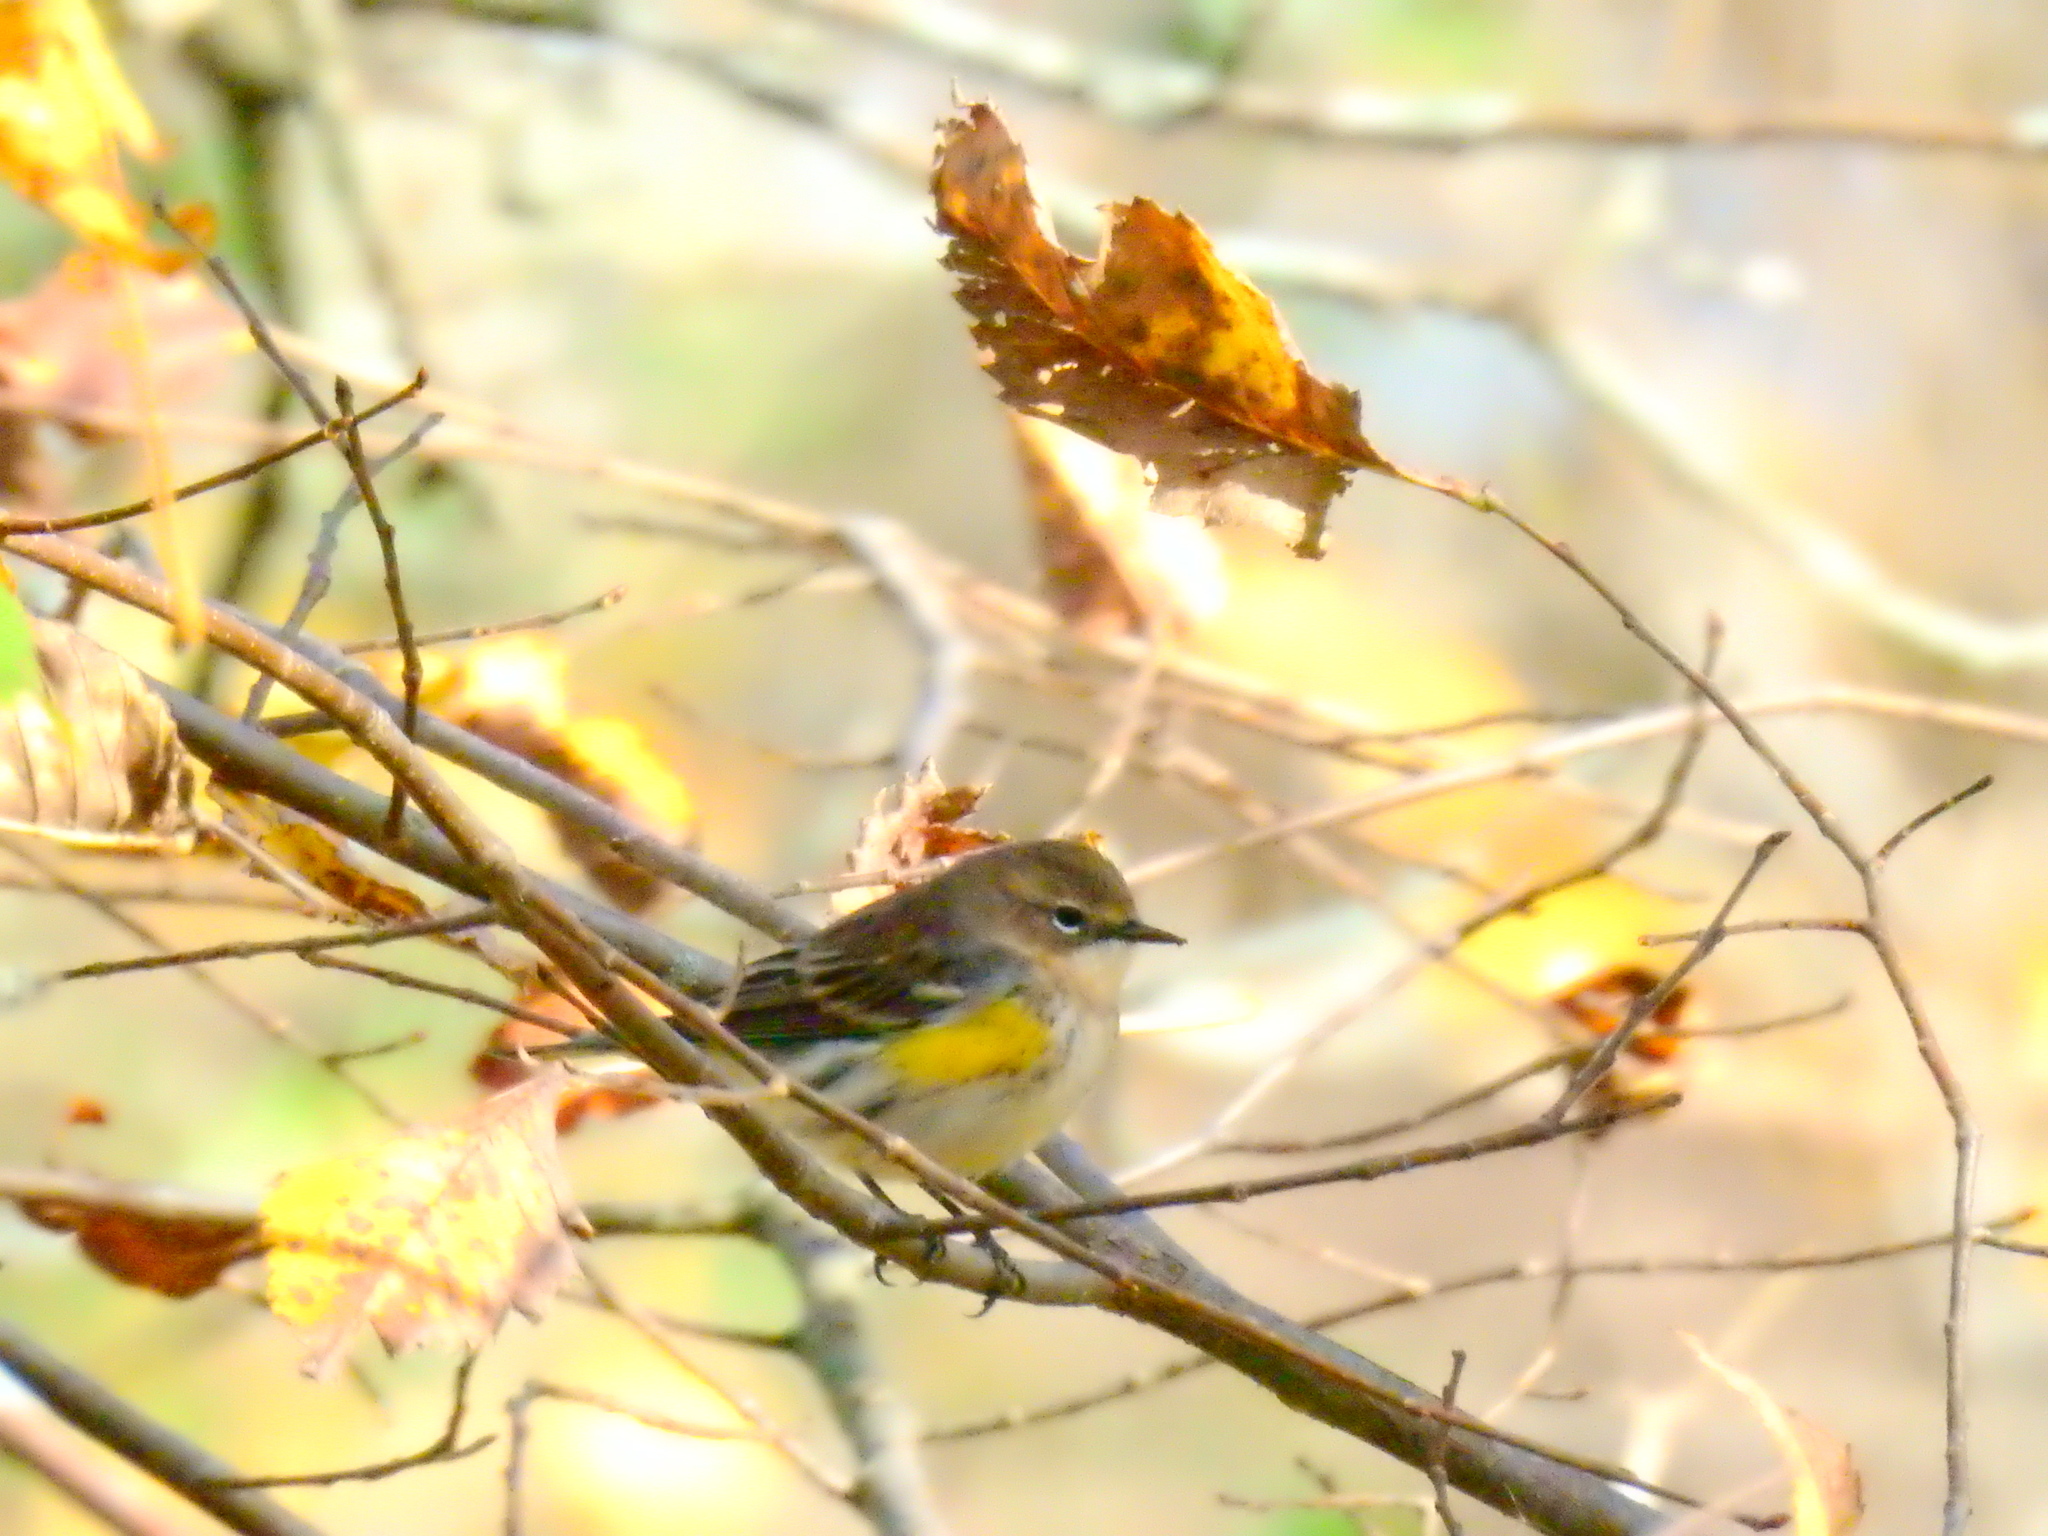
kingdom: Animalia
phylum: Chordata
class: Aves
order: Passeriformes
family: Parulidae
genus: Setophaga
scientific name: Setophaga coronata
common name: Myrtle warbler
